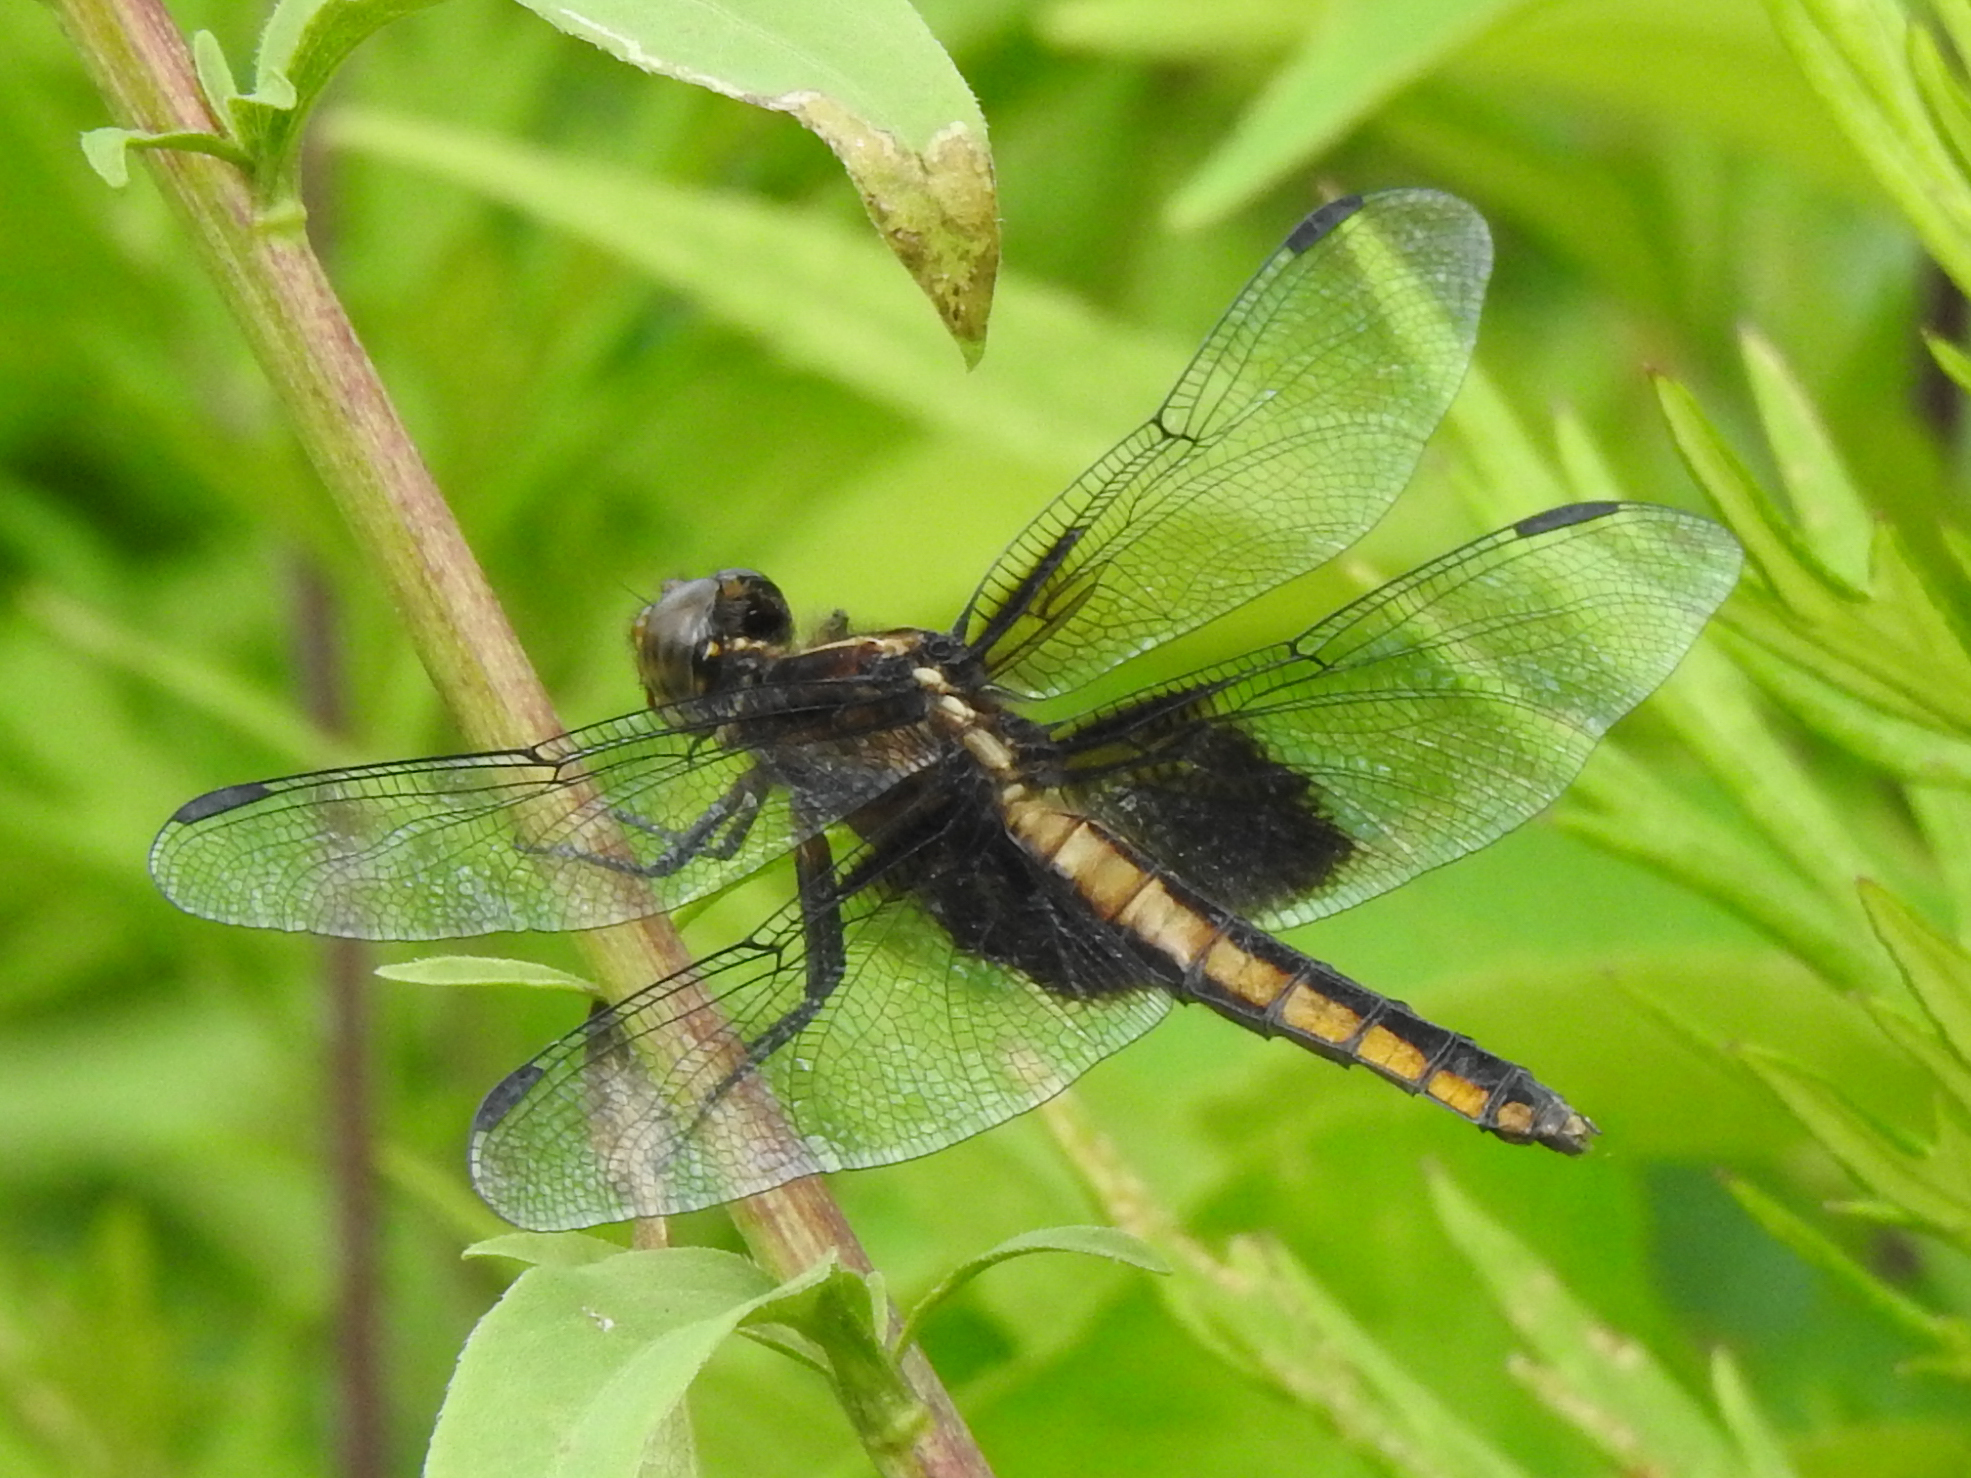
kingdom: Animalia
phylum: Arthropoda
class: Insecta
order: Odonata
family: Libellulidae
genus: Libellula
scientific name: Libellula luctuosa
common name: Widow skimmer
